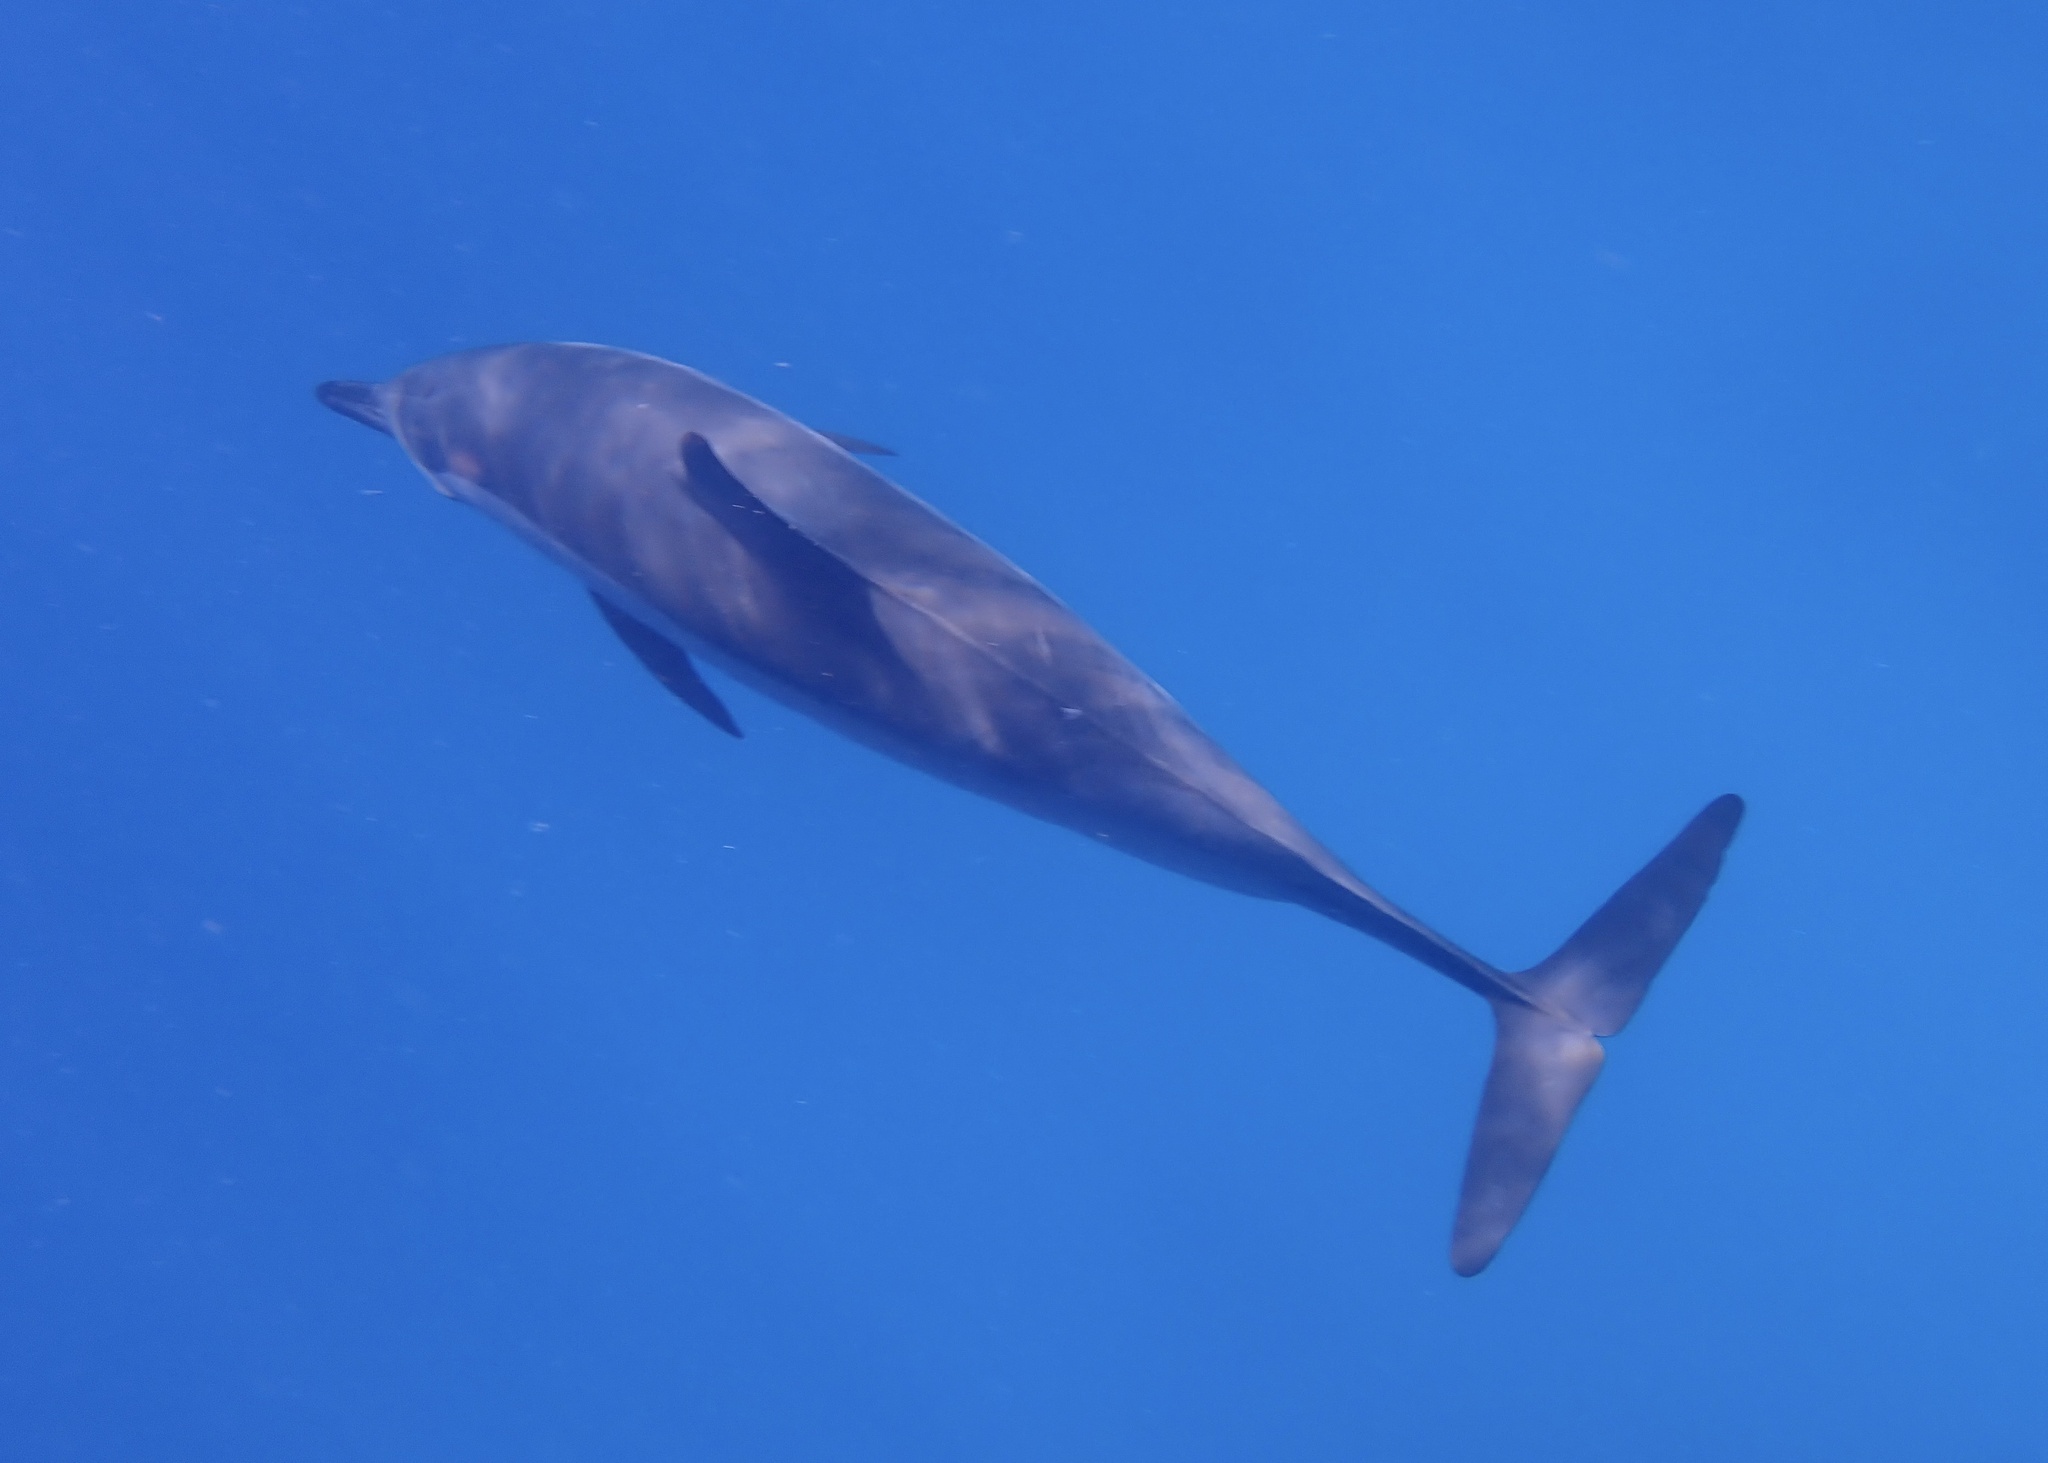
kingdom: Animalia
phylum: Chordata
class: Mammalia
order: Cetacea
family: Delphinidae
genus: Stenella
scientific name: Stenella longirostris
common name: Spinner dolphin
